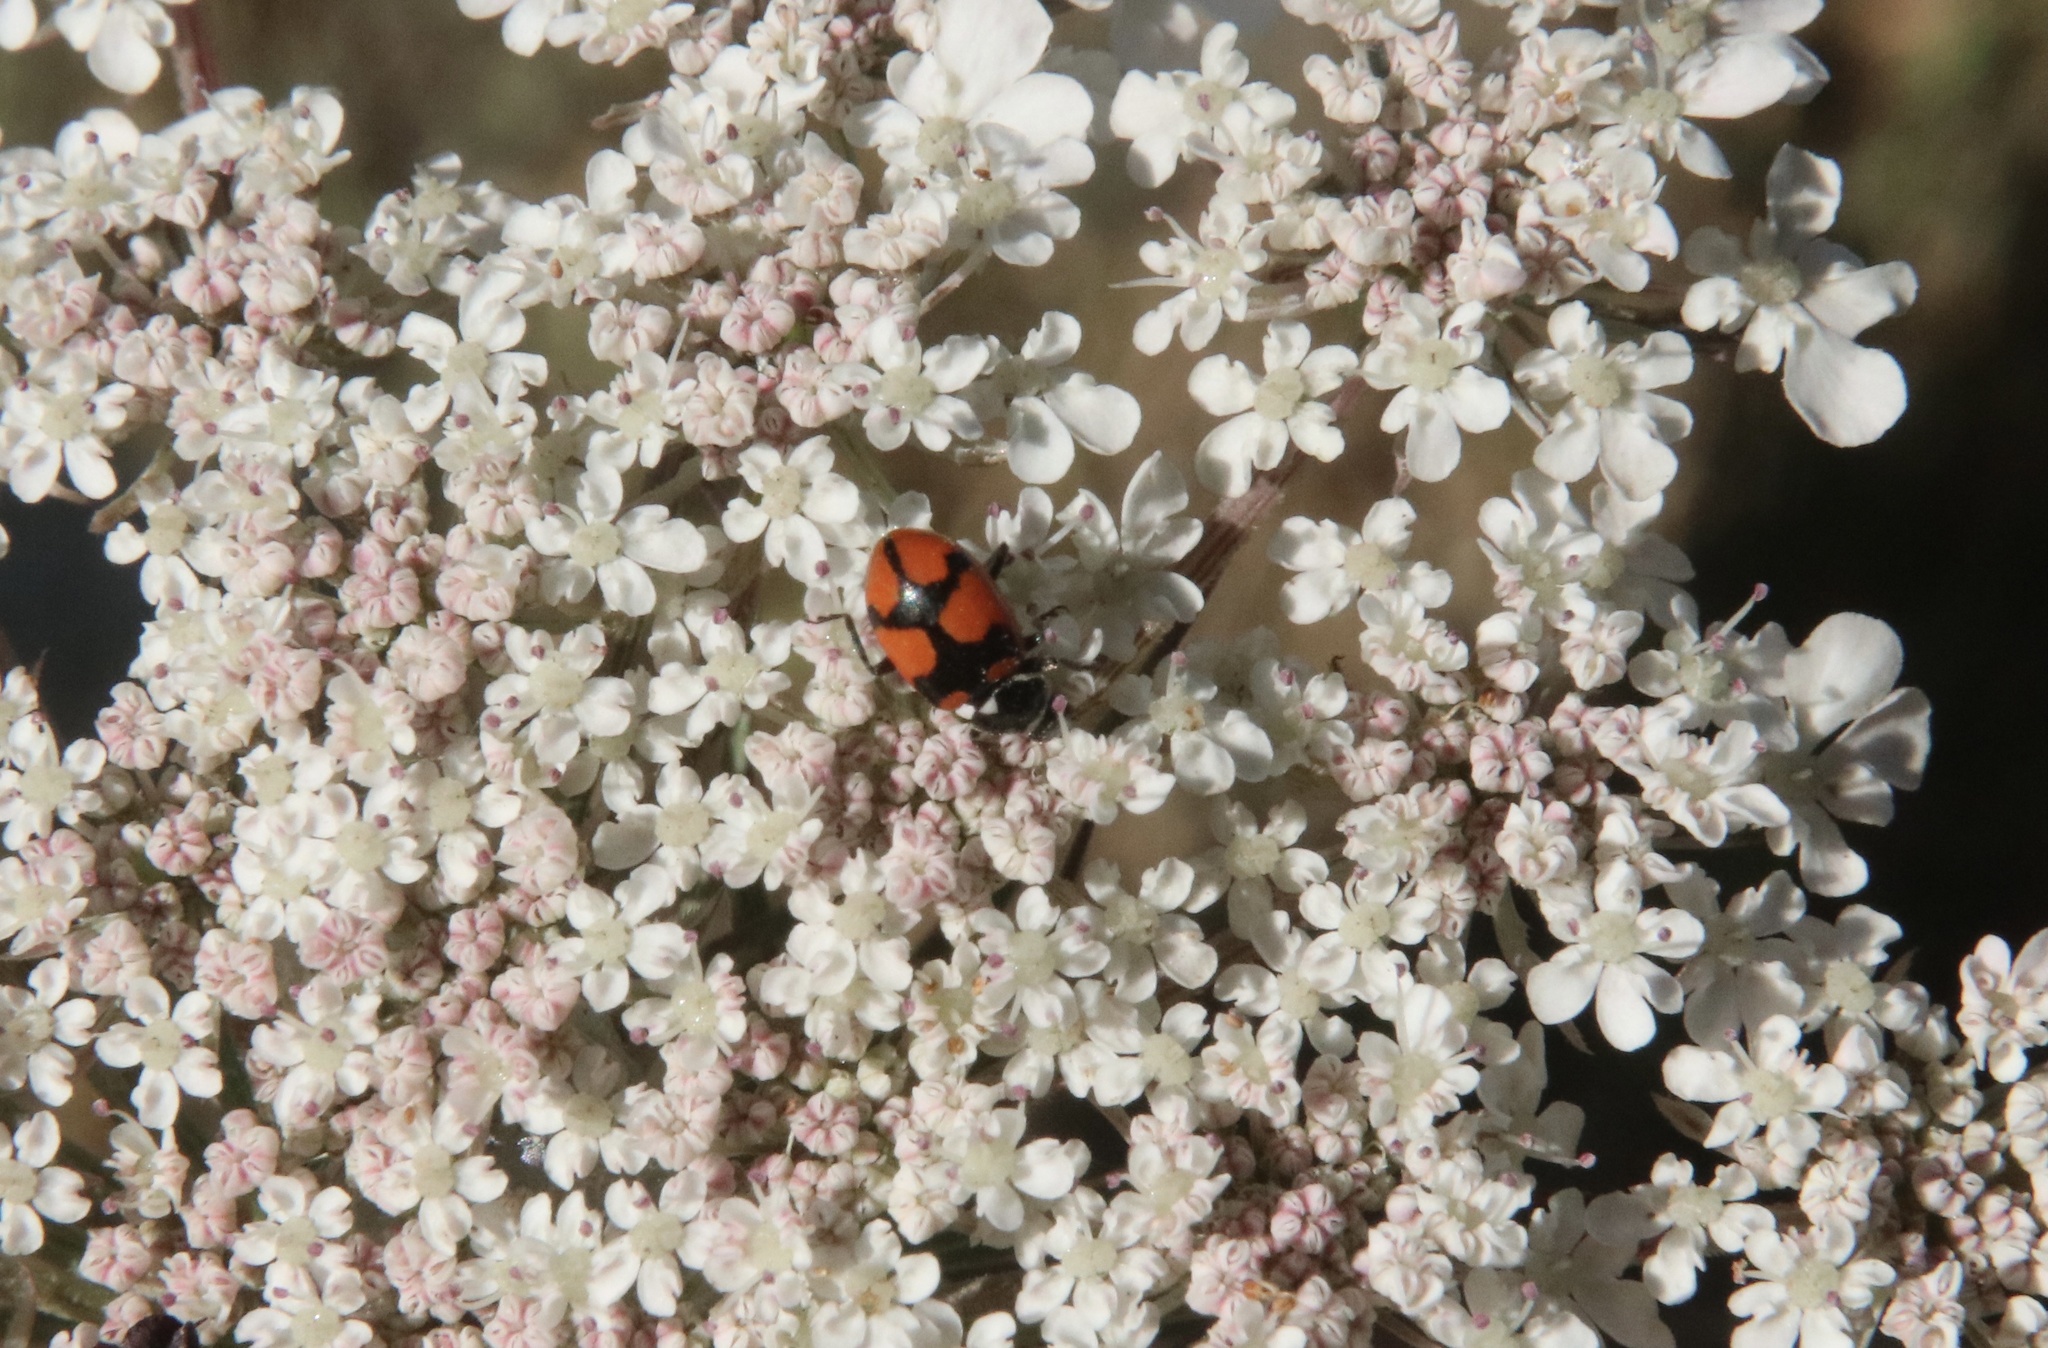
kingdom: Animalia
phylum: Arthropoda
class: Insecta
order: Coleoptera
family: Coccinellidae
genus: Eriopis
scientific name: Eriopis eschscholtzii
